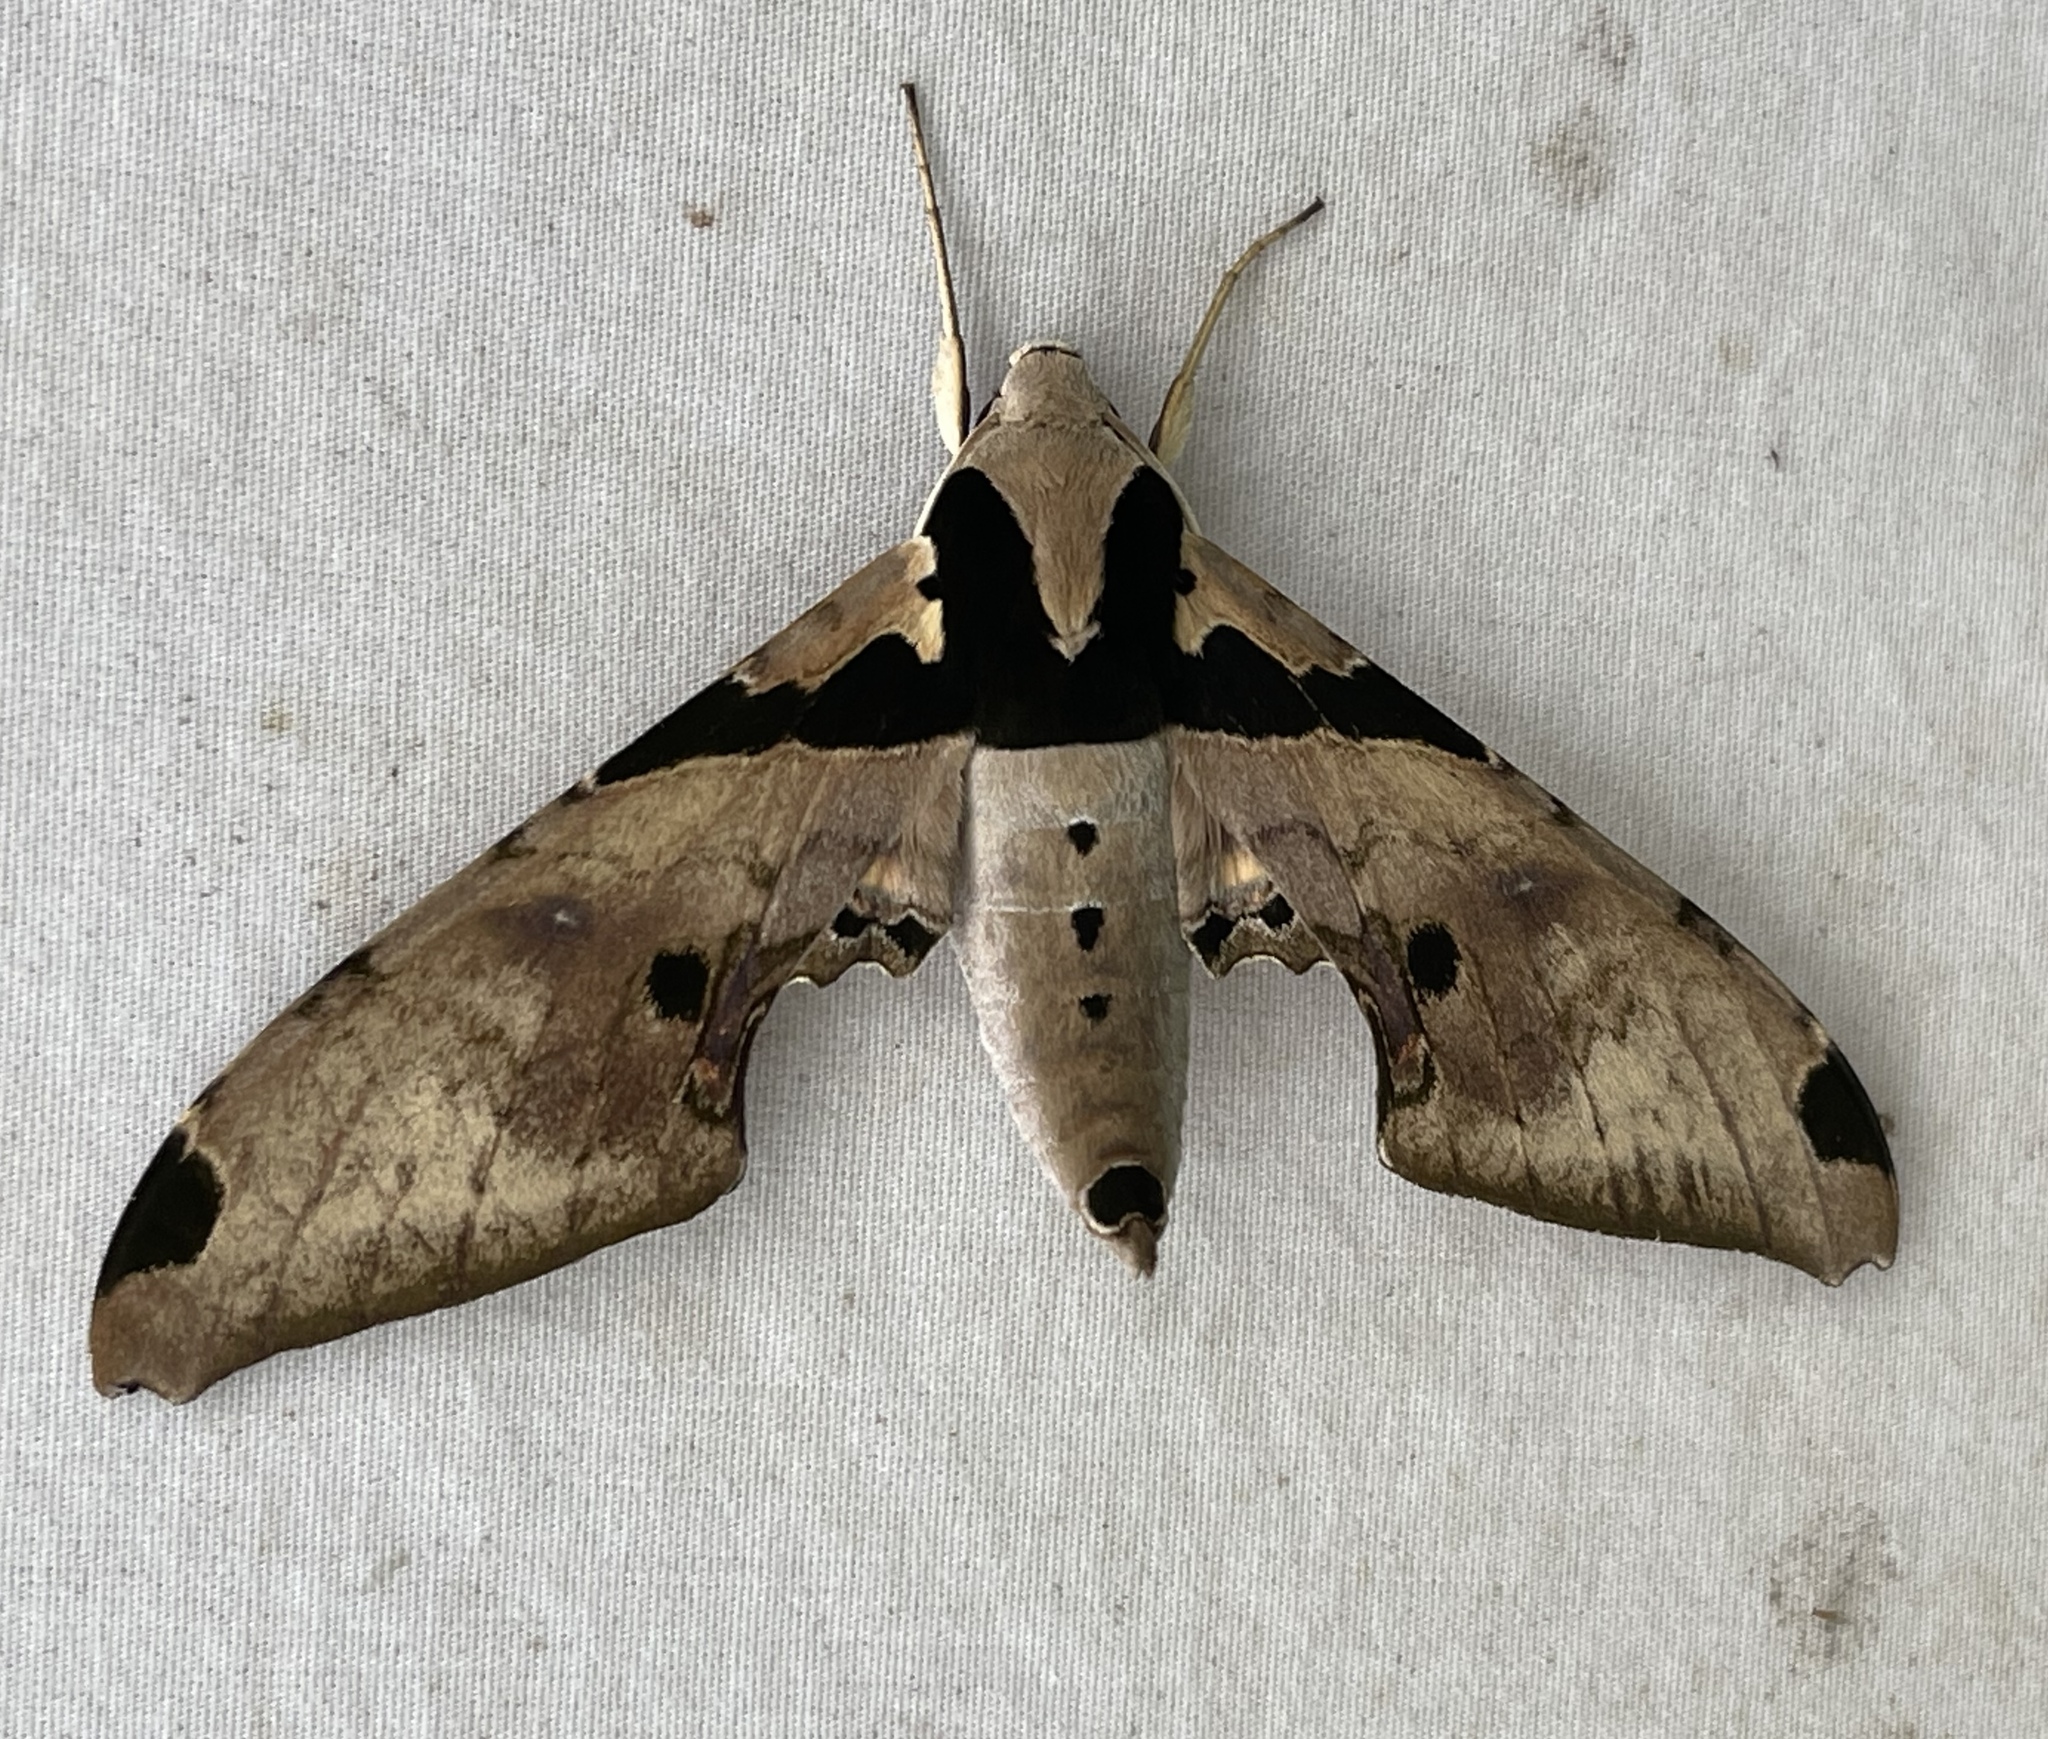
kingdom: Animalia
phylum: Arthropoda
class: Insecta
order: Lepidoptera
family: Sphingidae
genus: Adhemarius
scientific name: Adhemarius gannascus
